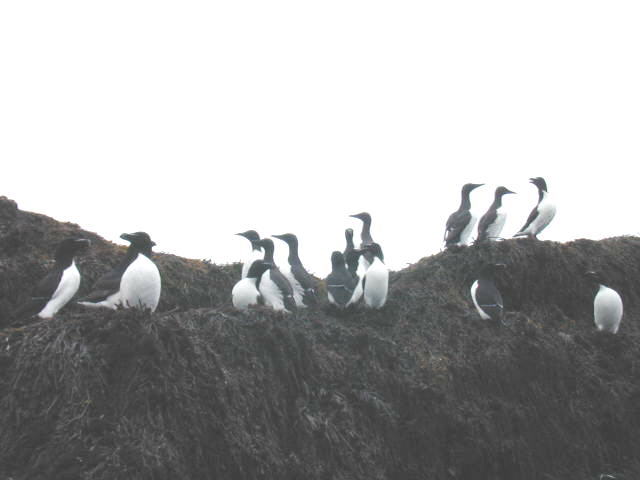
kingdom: Animalia
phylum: Chordata
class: Aves
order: Charadriiformes
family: Alcidae
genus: Uria
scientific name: Uria aalge
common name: Common murre
